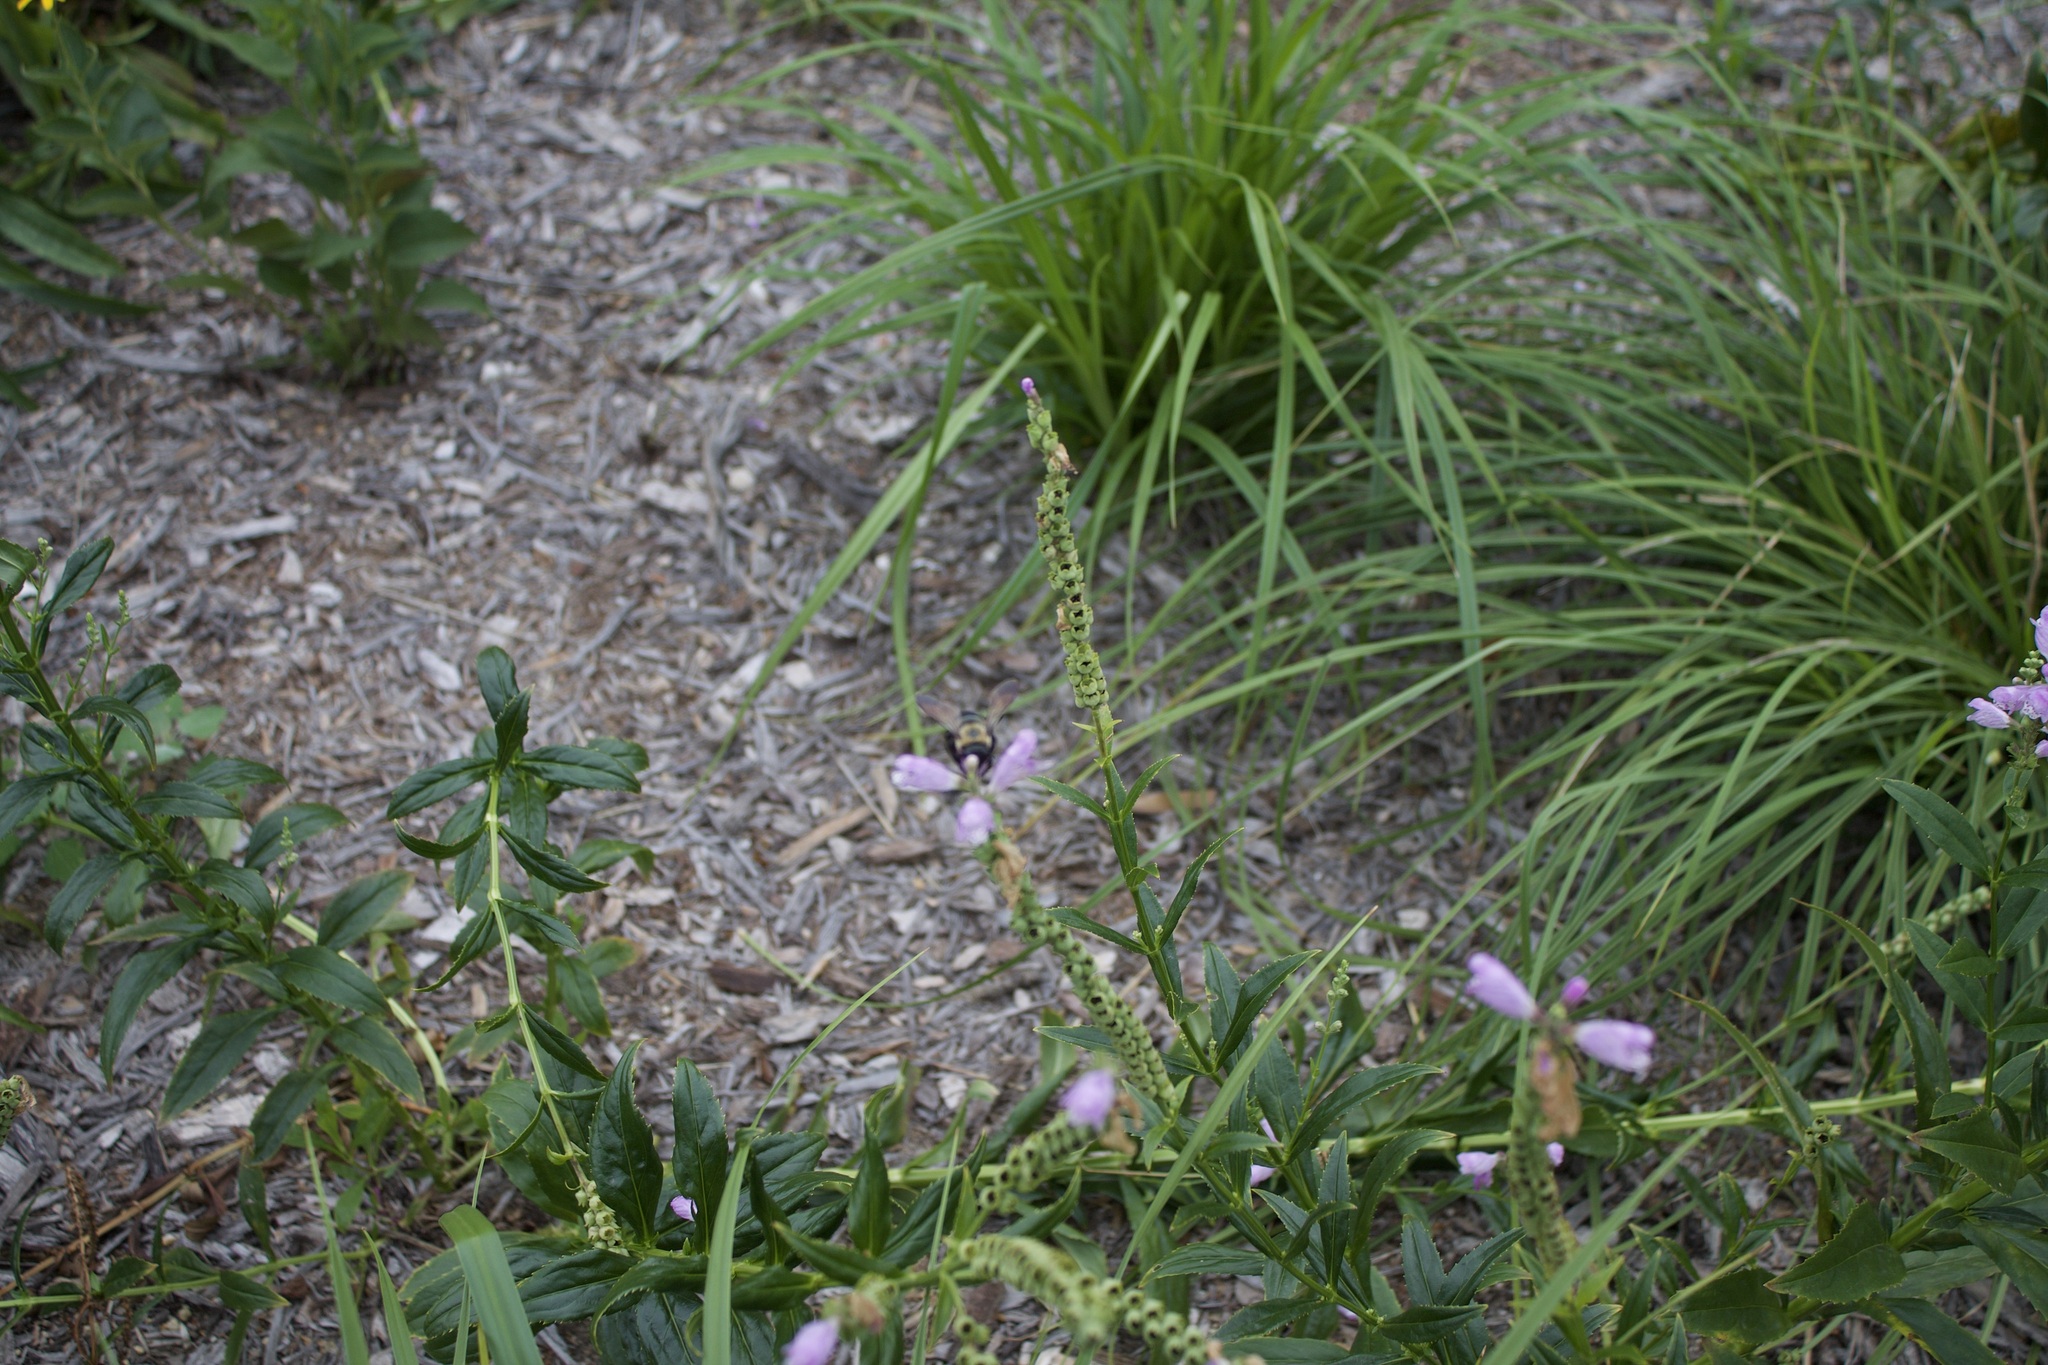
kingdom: Animalia
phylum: Arthropoda
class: Insecta
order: Hymenoptera
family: Apidae
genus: Xylocopa
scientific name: Xylocopa virginica
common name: Carpenter bee
